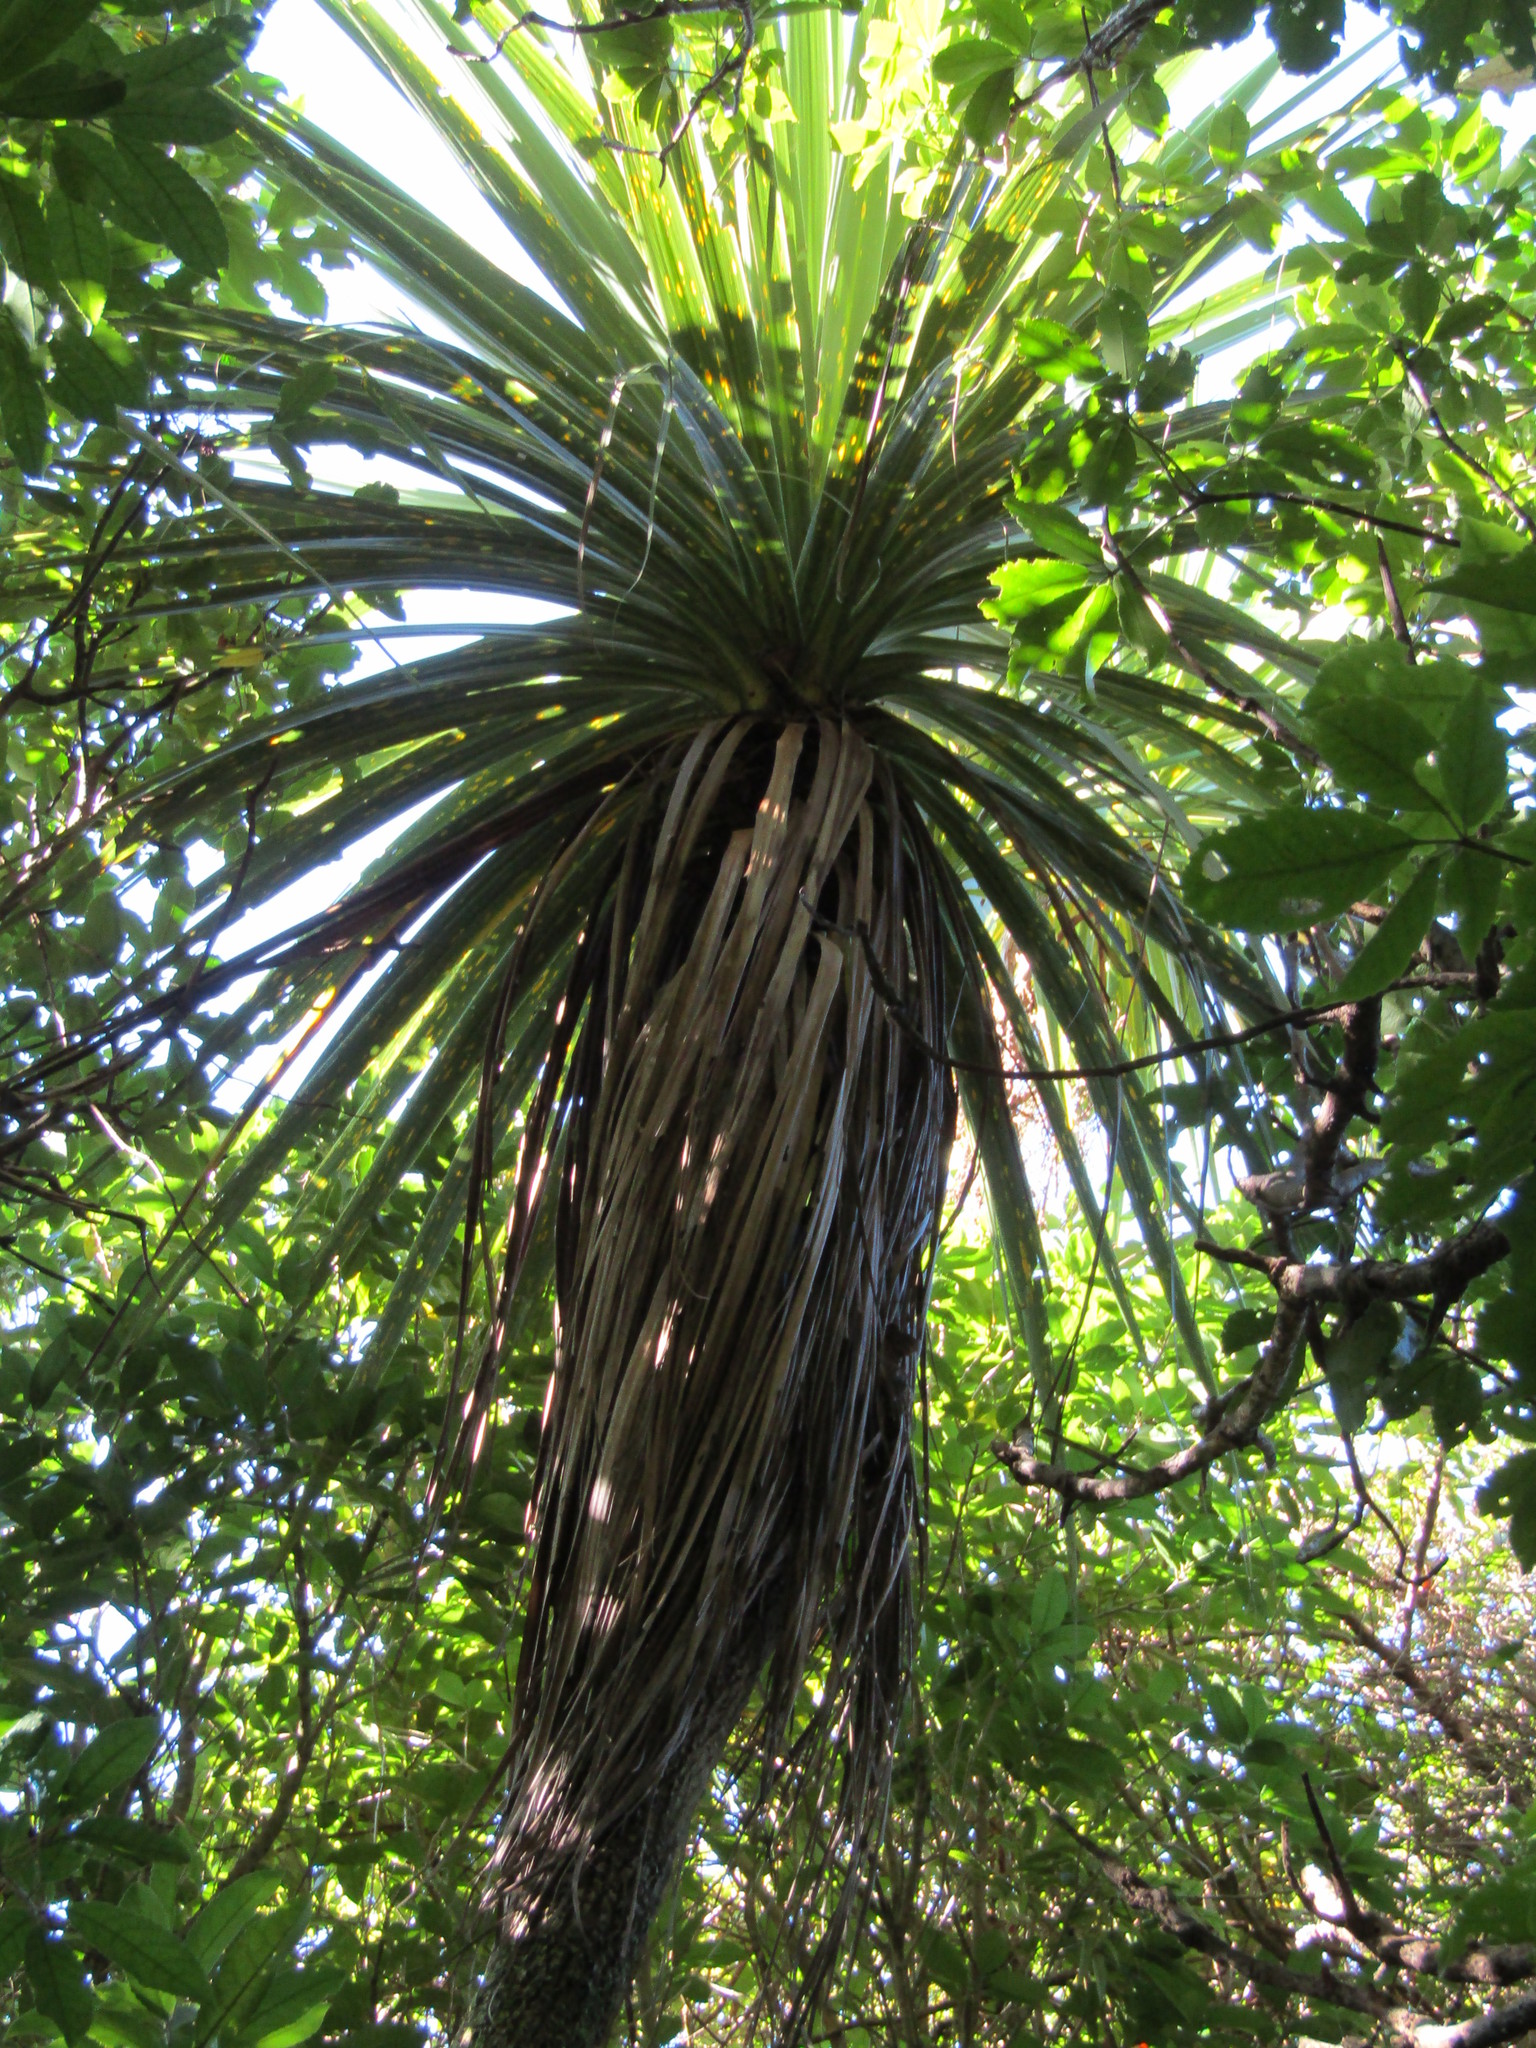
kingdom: Plantae
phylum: Tracheophyta
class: Liliopsida
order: Asparagales
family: Asparagaceae
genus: Cordyline
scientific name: Cordyline australis
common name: Cabbage-palm
